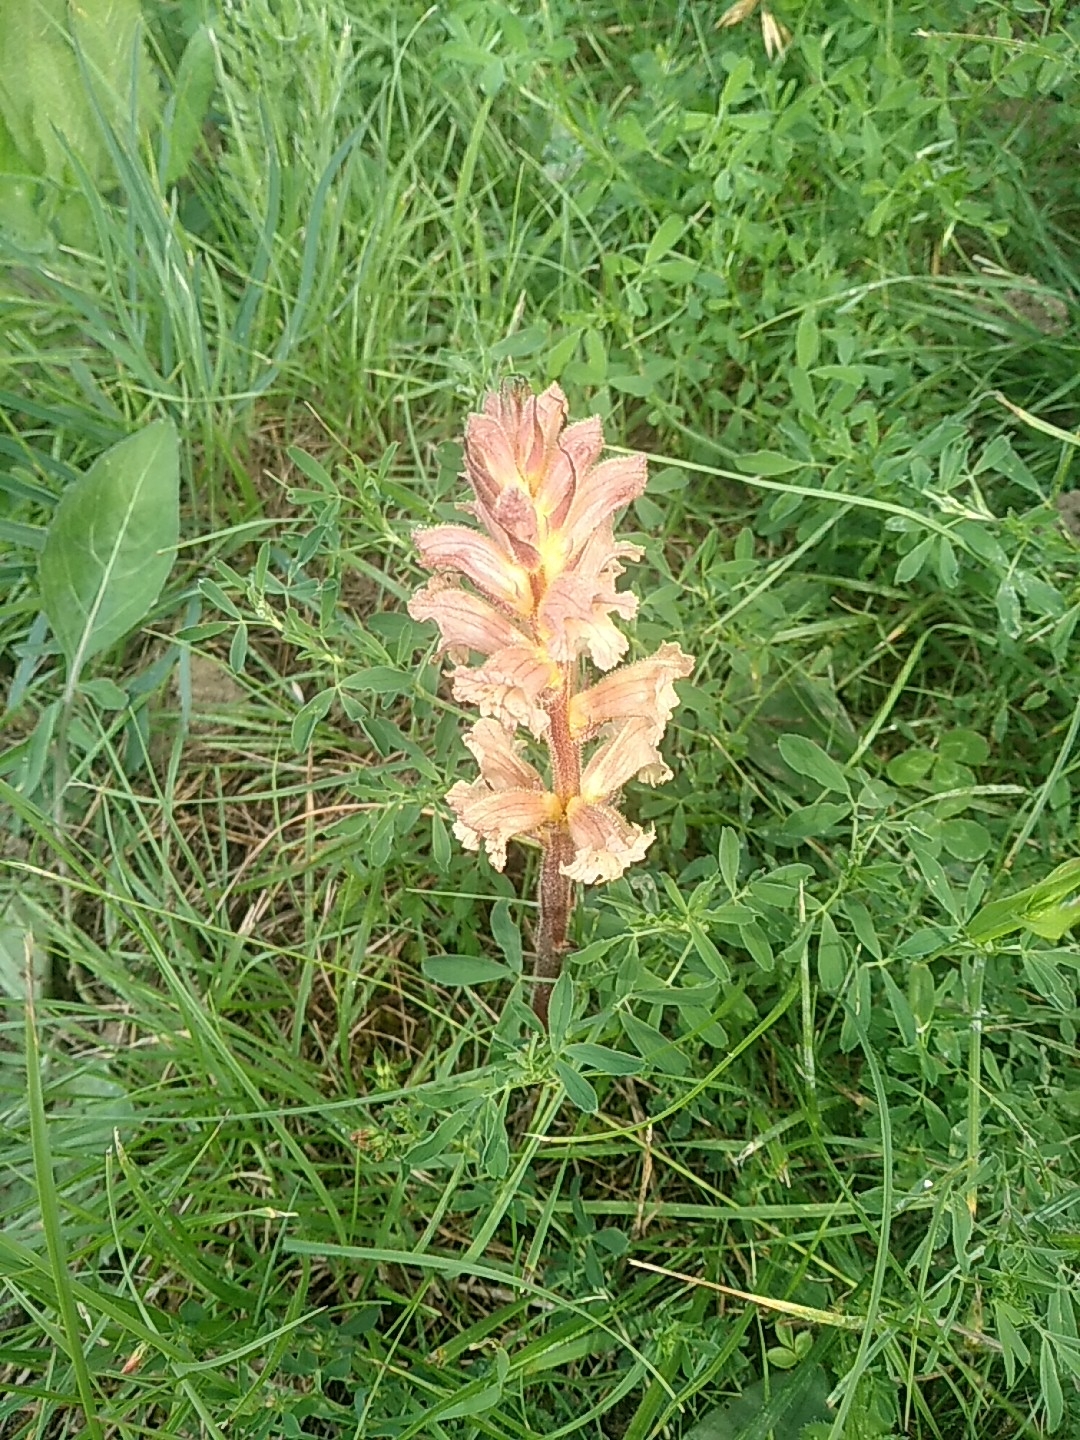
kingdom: Plantae
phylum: Tracheophyta
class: Magnoliopsida
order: Lamiales
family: Orobanchaceae
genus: Orobanche
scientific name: Orobanche lutea
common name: Yellow broomrape
